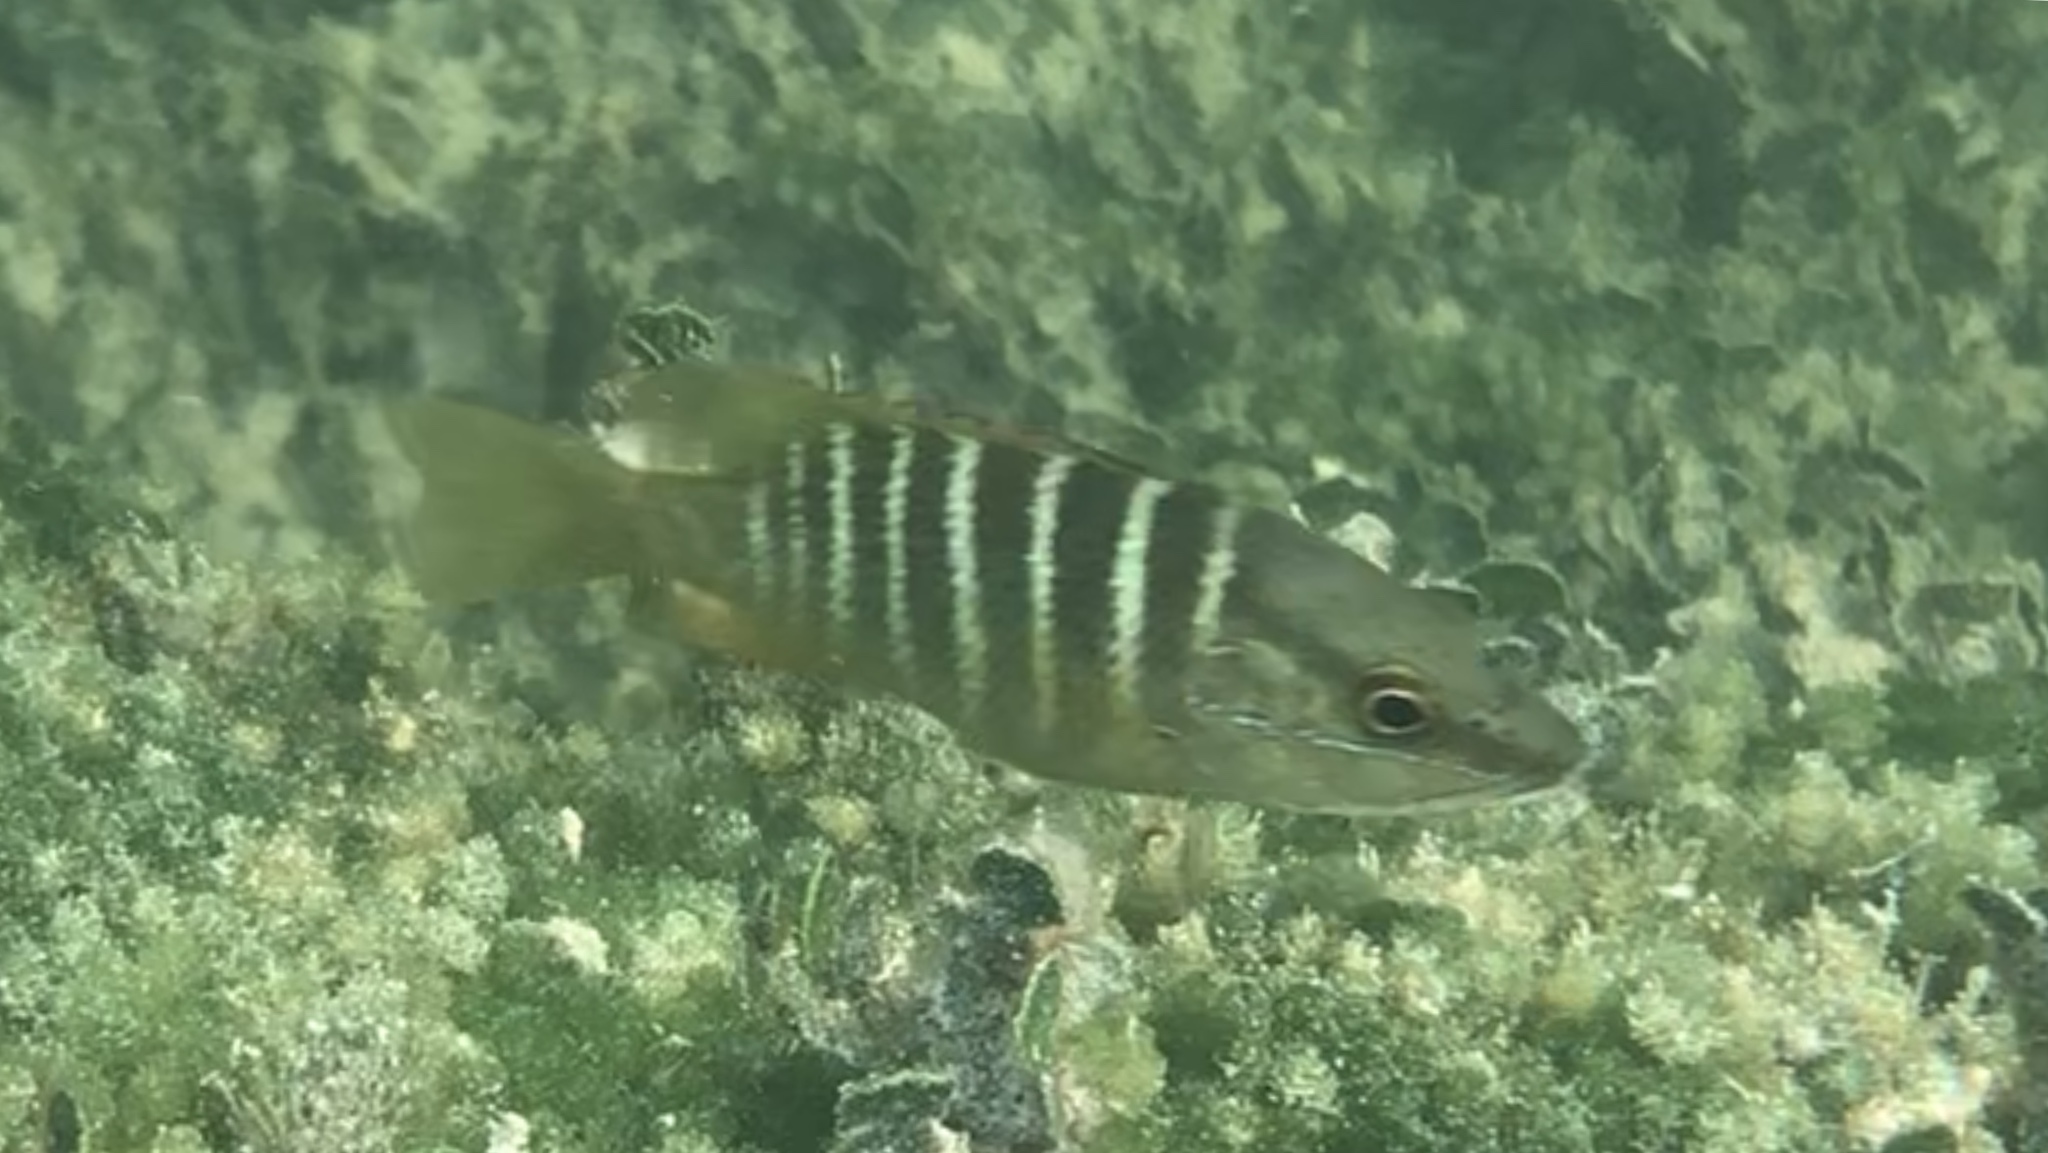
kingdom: Animalia
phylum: Chordata
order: Perciformes
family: Lutjanidae
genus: Lutjanus
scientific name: Lutjanus apodus
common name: Schoolmaster
